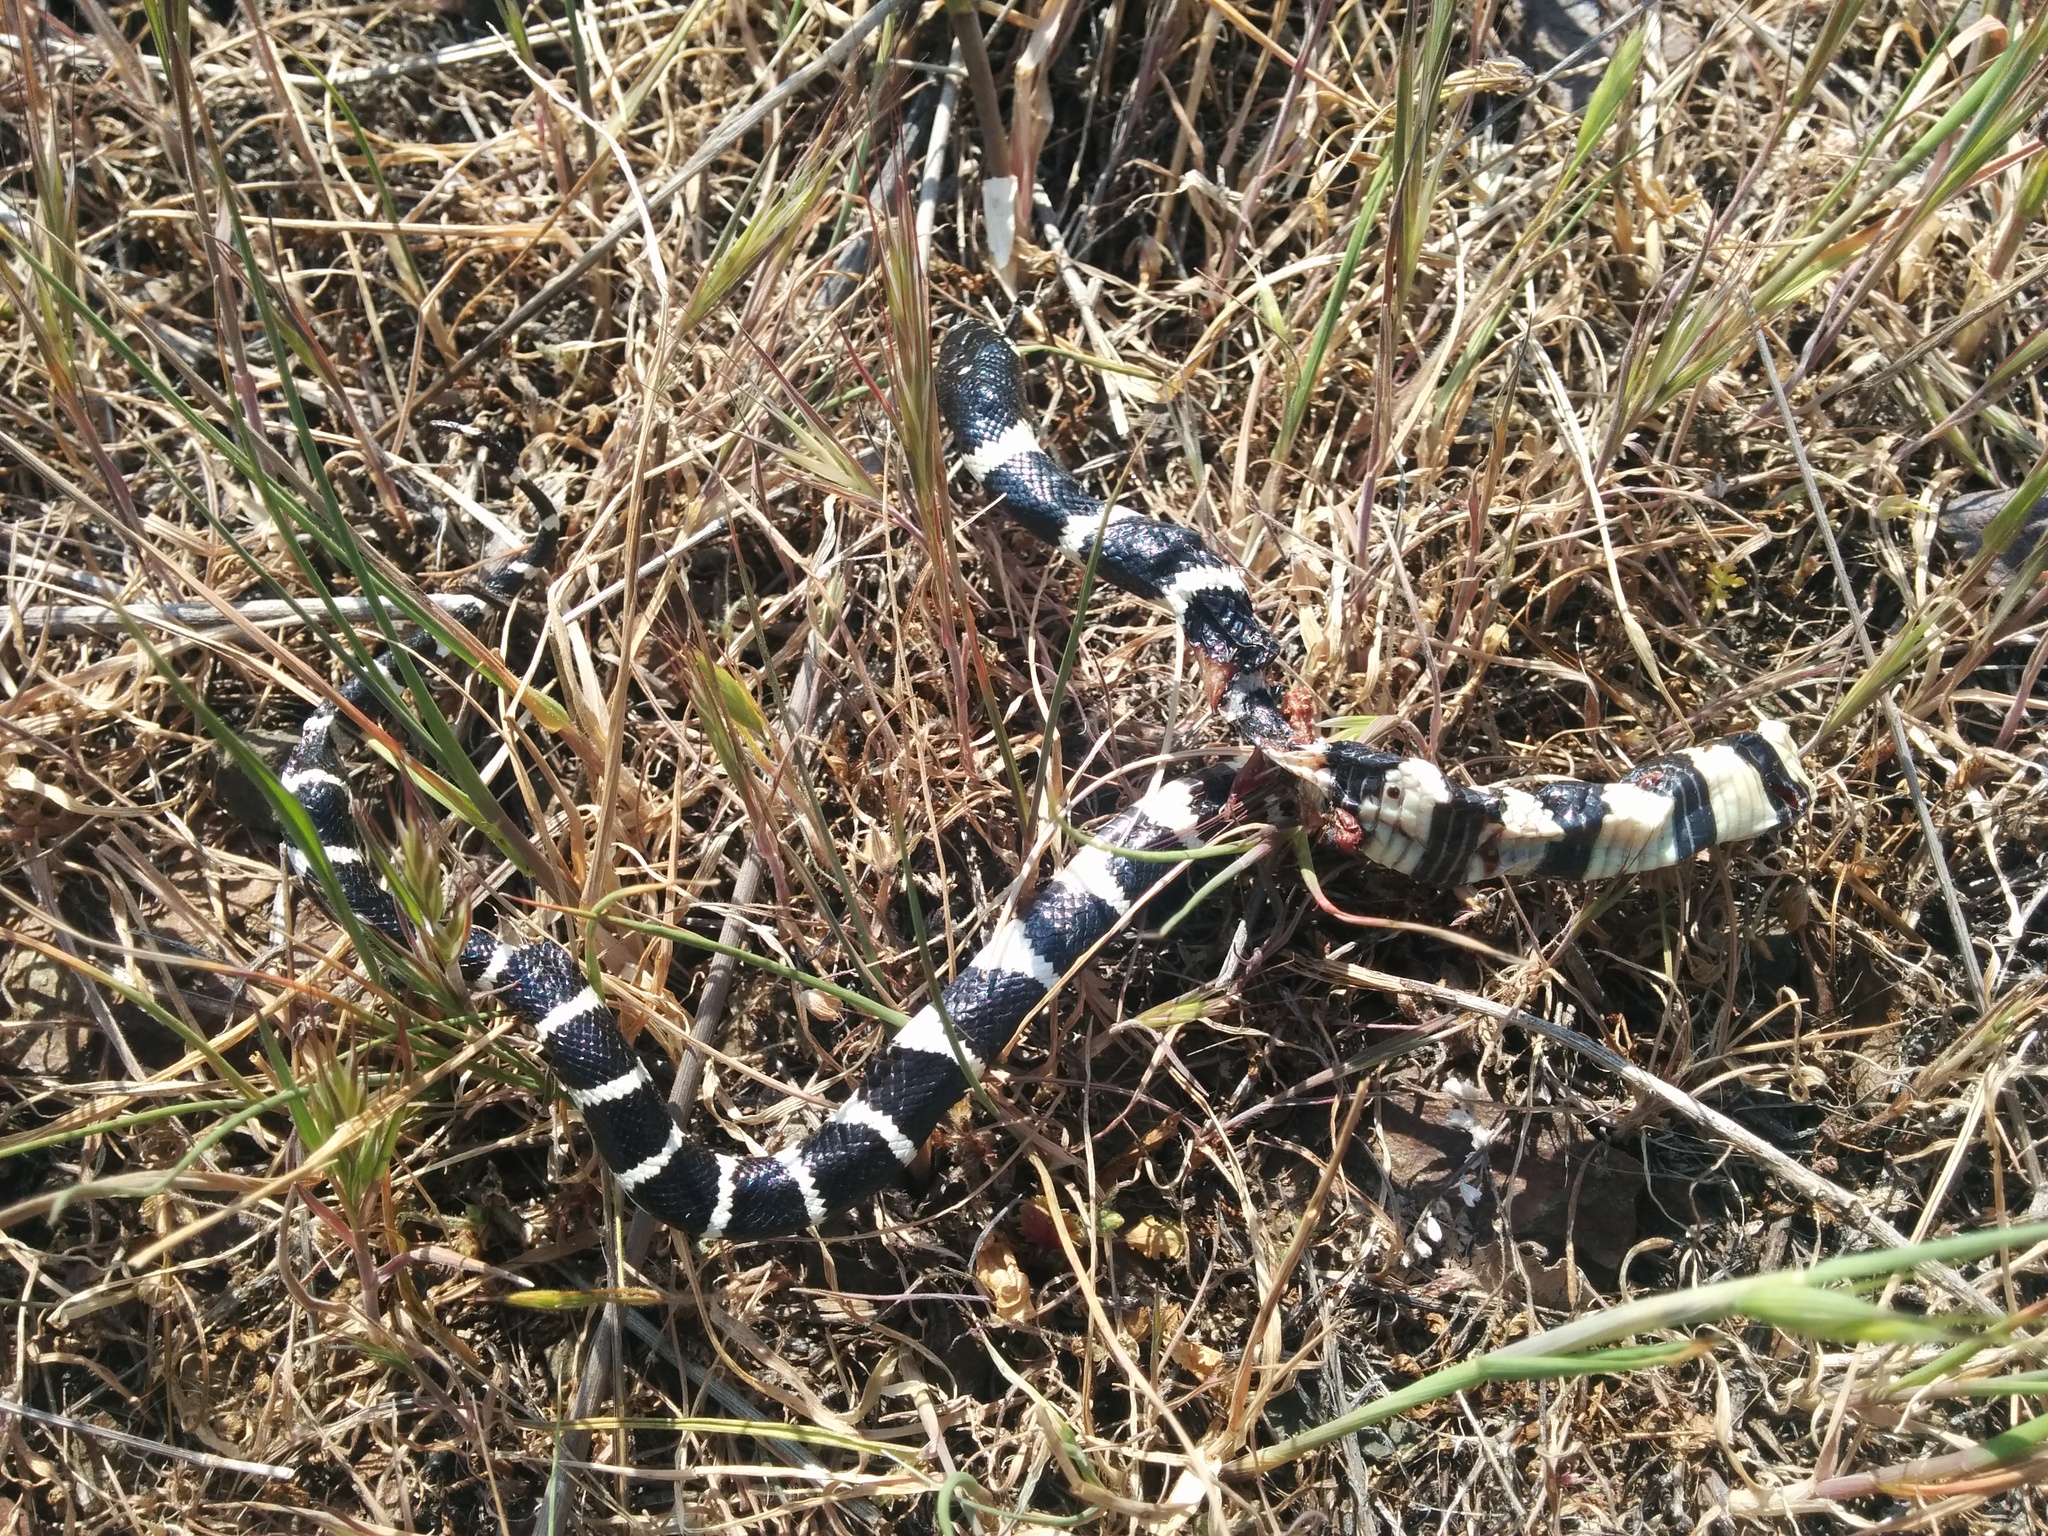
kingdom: Animalia
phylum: Chordata
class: Squamata
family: Colubridae
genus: Lampropeltis
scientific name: Lampropeltis californiae
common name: California kingsnake
